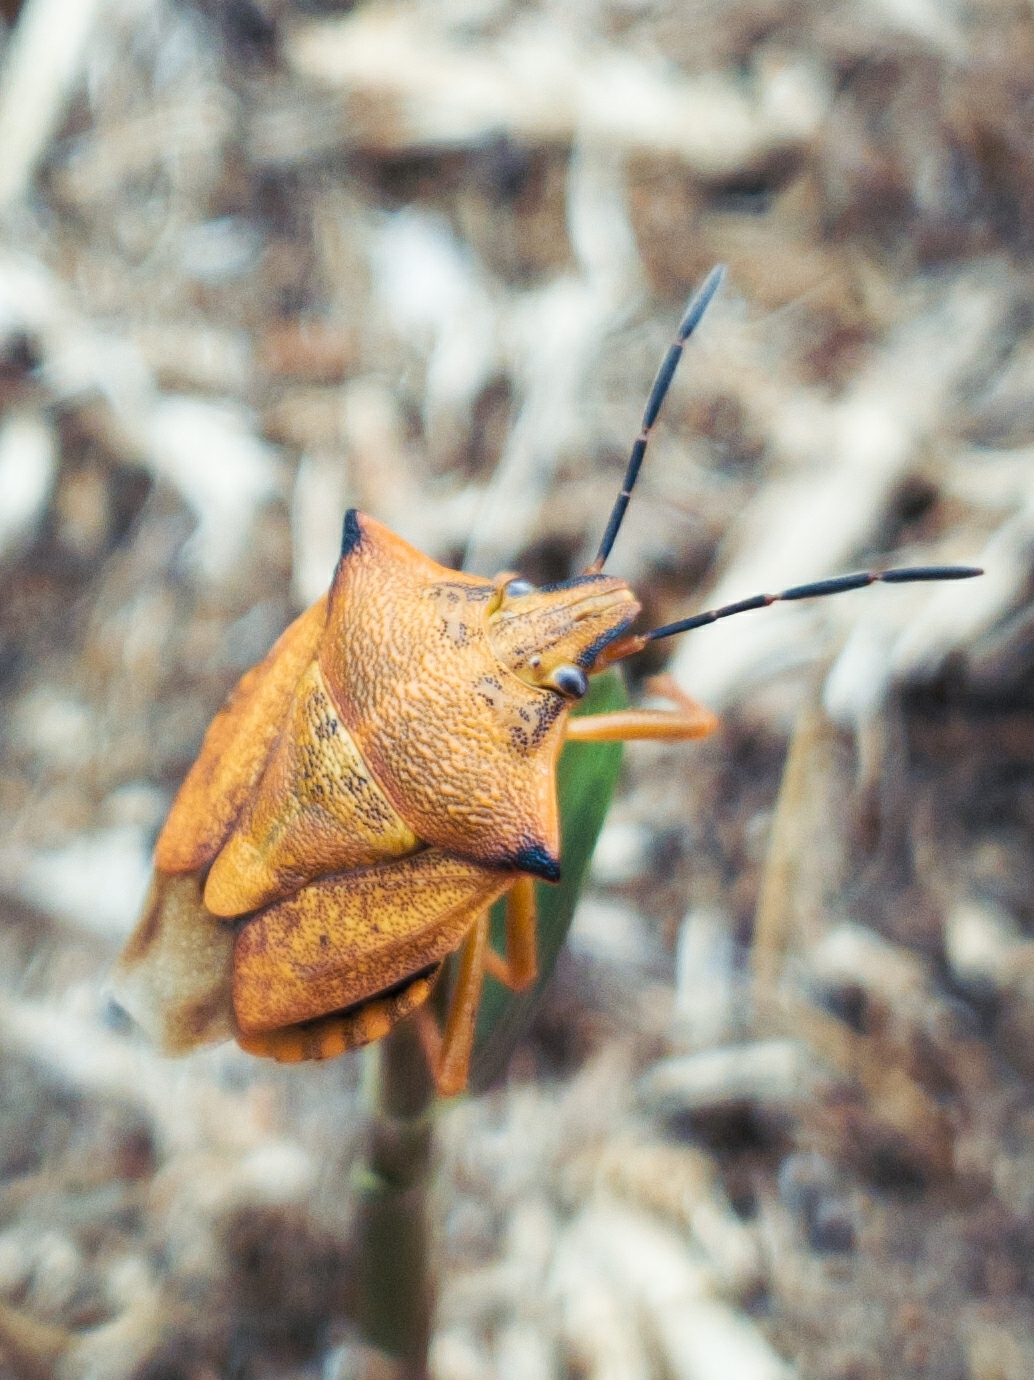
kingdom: Animalia
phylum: Arthropoda
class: Insecta
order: Hemiptera
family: Pentatomidae
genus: Carpocoris
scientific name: Carpocoris mediterraneus
